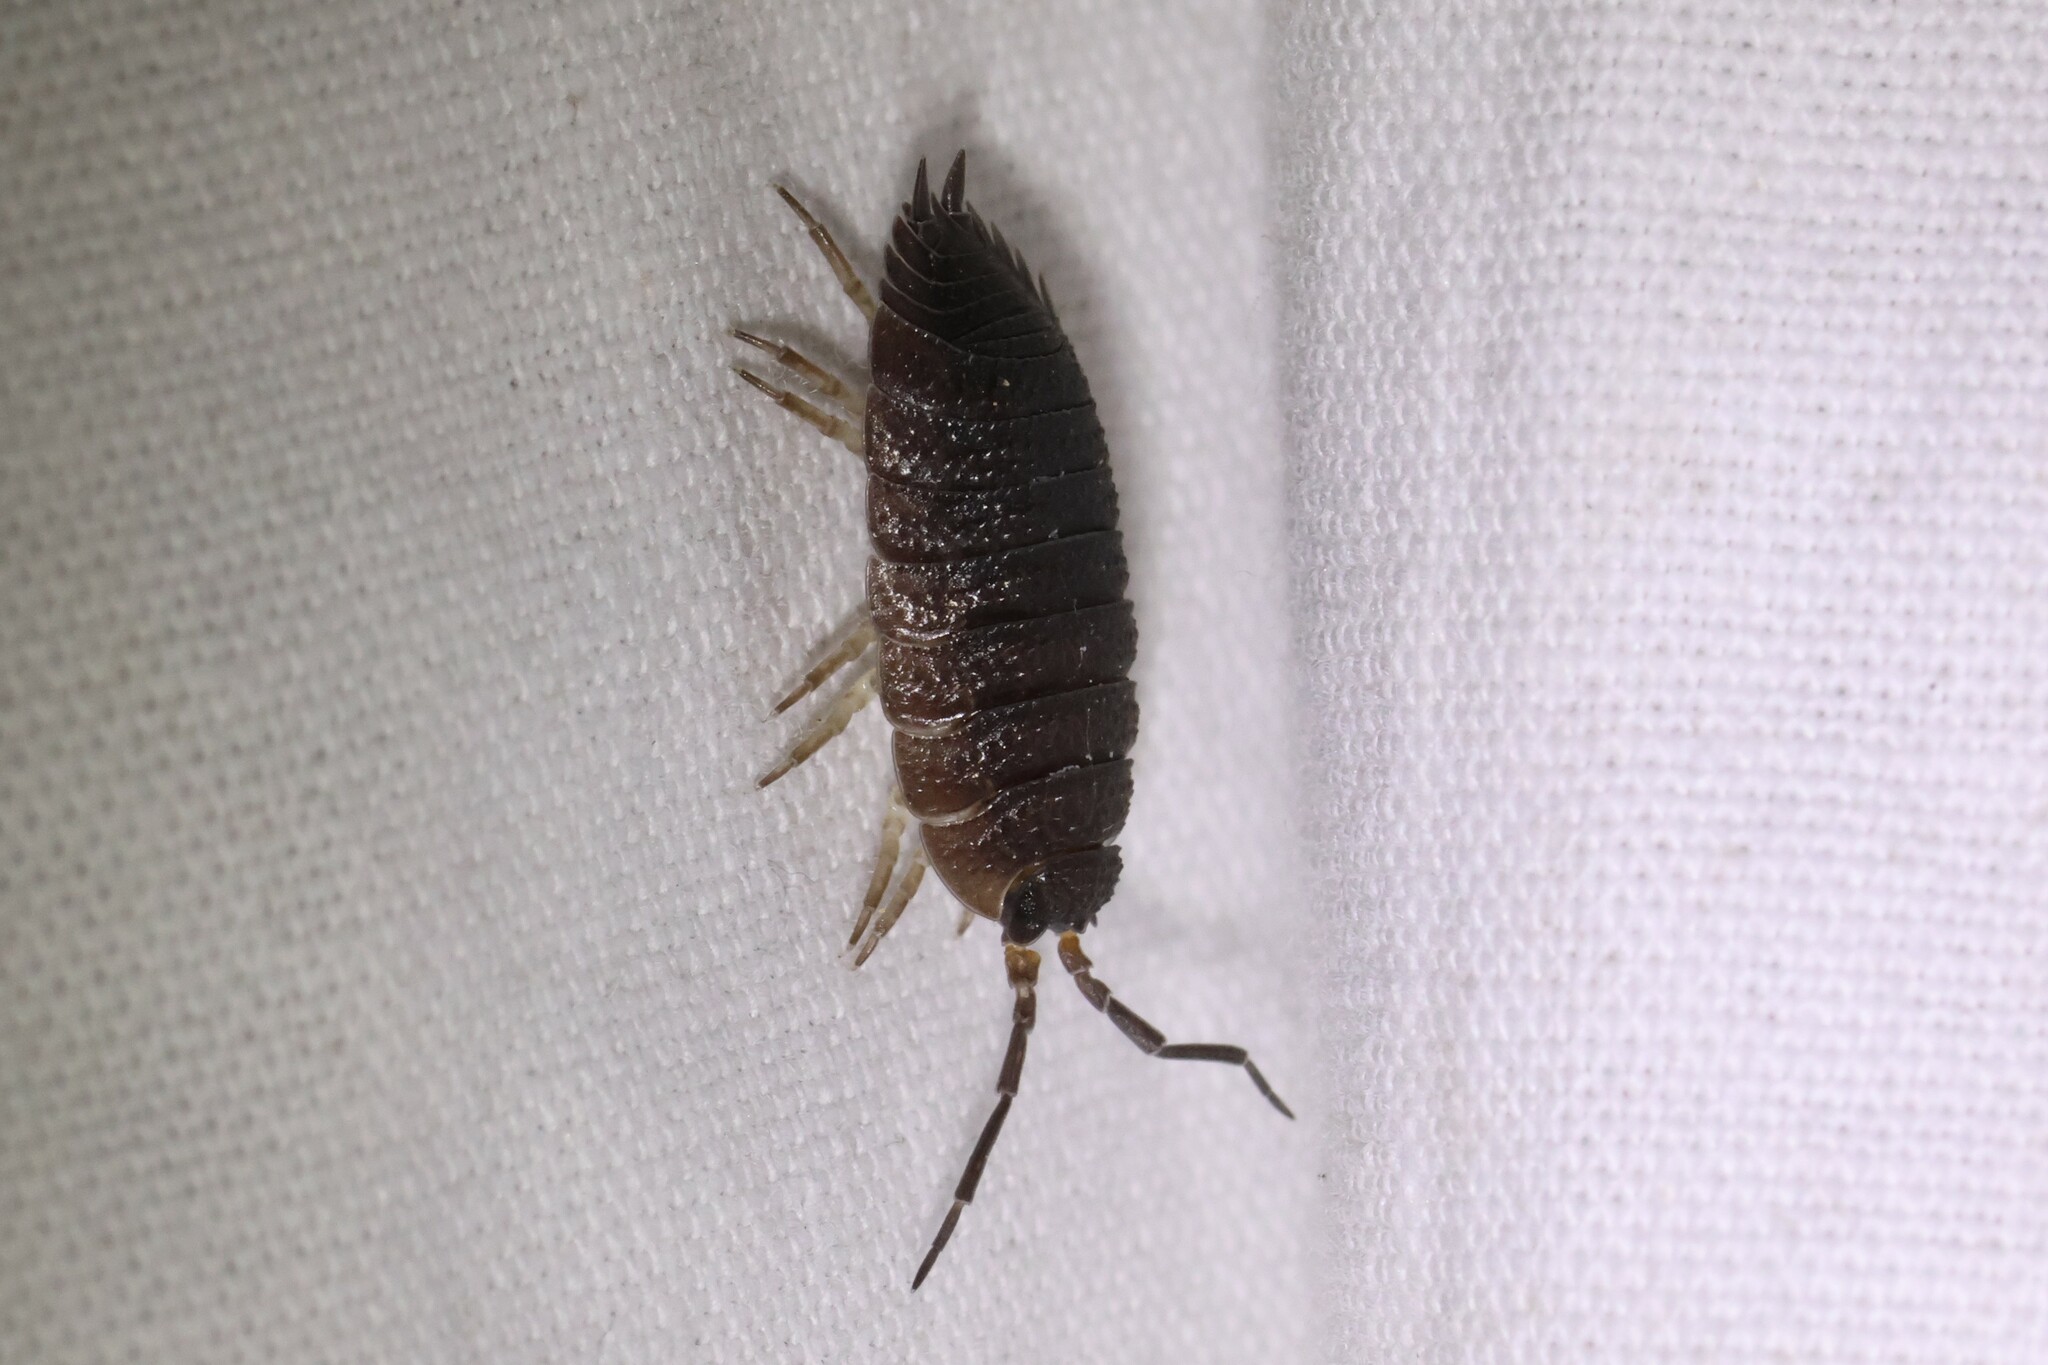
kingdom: Animalia
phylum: Arthropoda
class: Malacostraca
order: Isopoda
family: Porcellionidae
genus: Porcellio
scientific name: Porcellio scaber
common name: Common rough woodlouse
